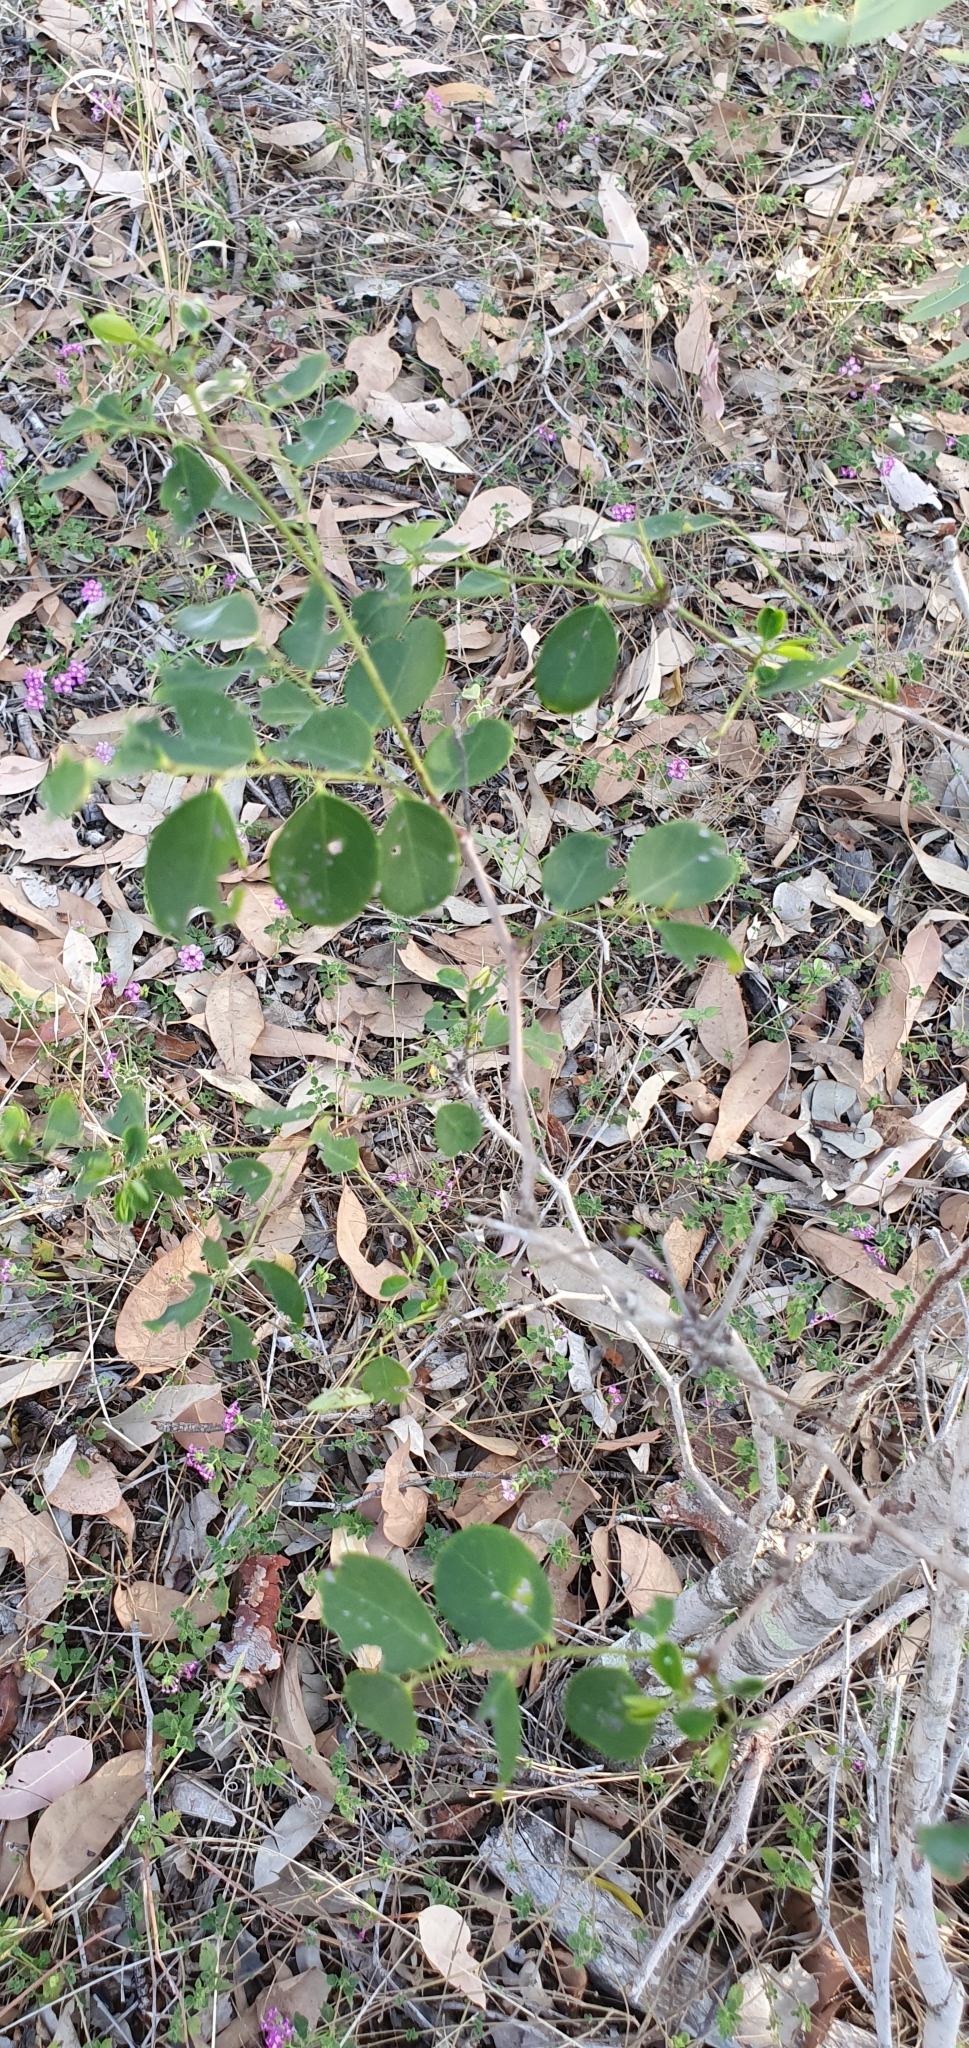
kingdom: Plantae
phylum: Tracheophyta
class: Magnoliopsida
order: Malpighiales
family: Phyllanthaceae
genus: Breynia
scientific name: Breynia oblongifolia
